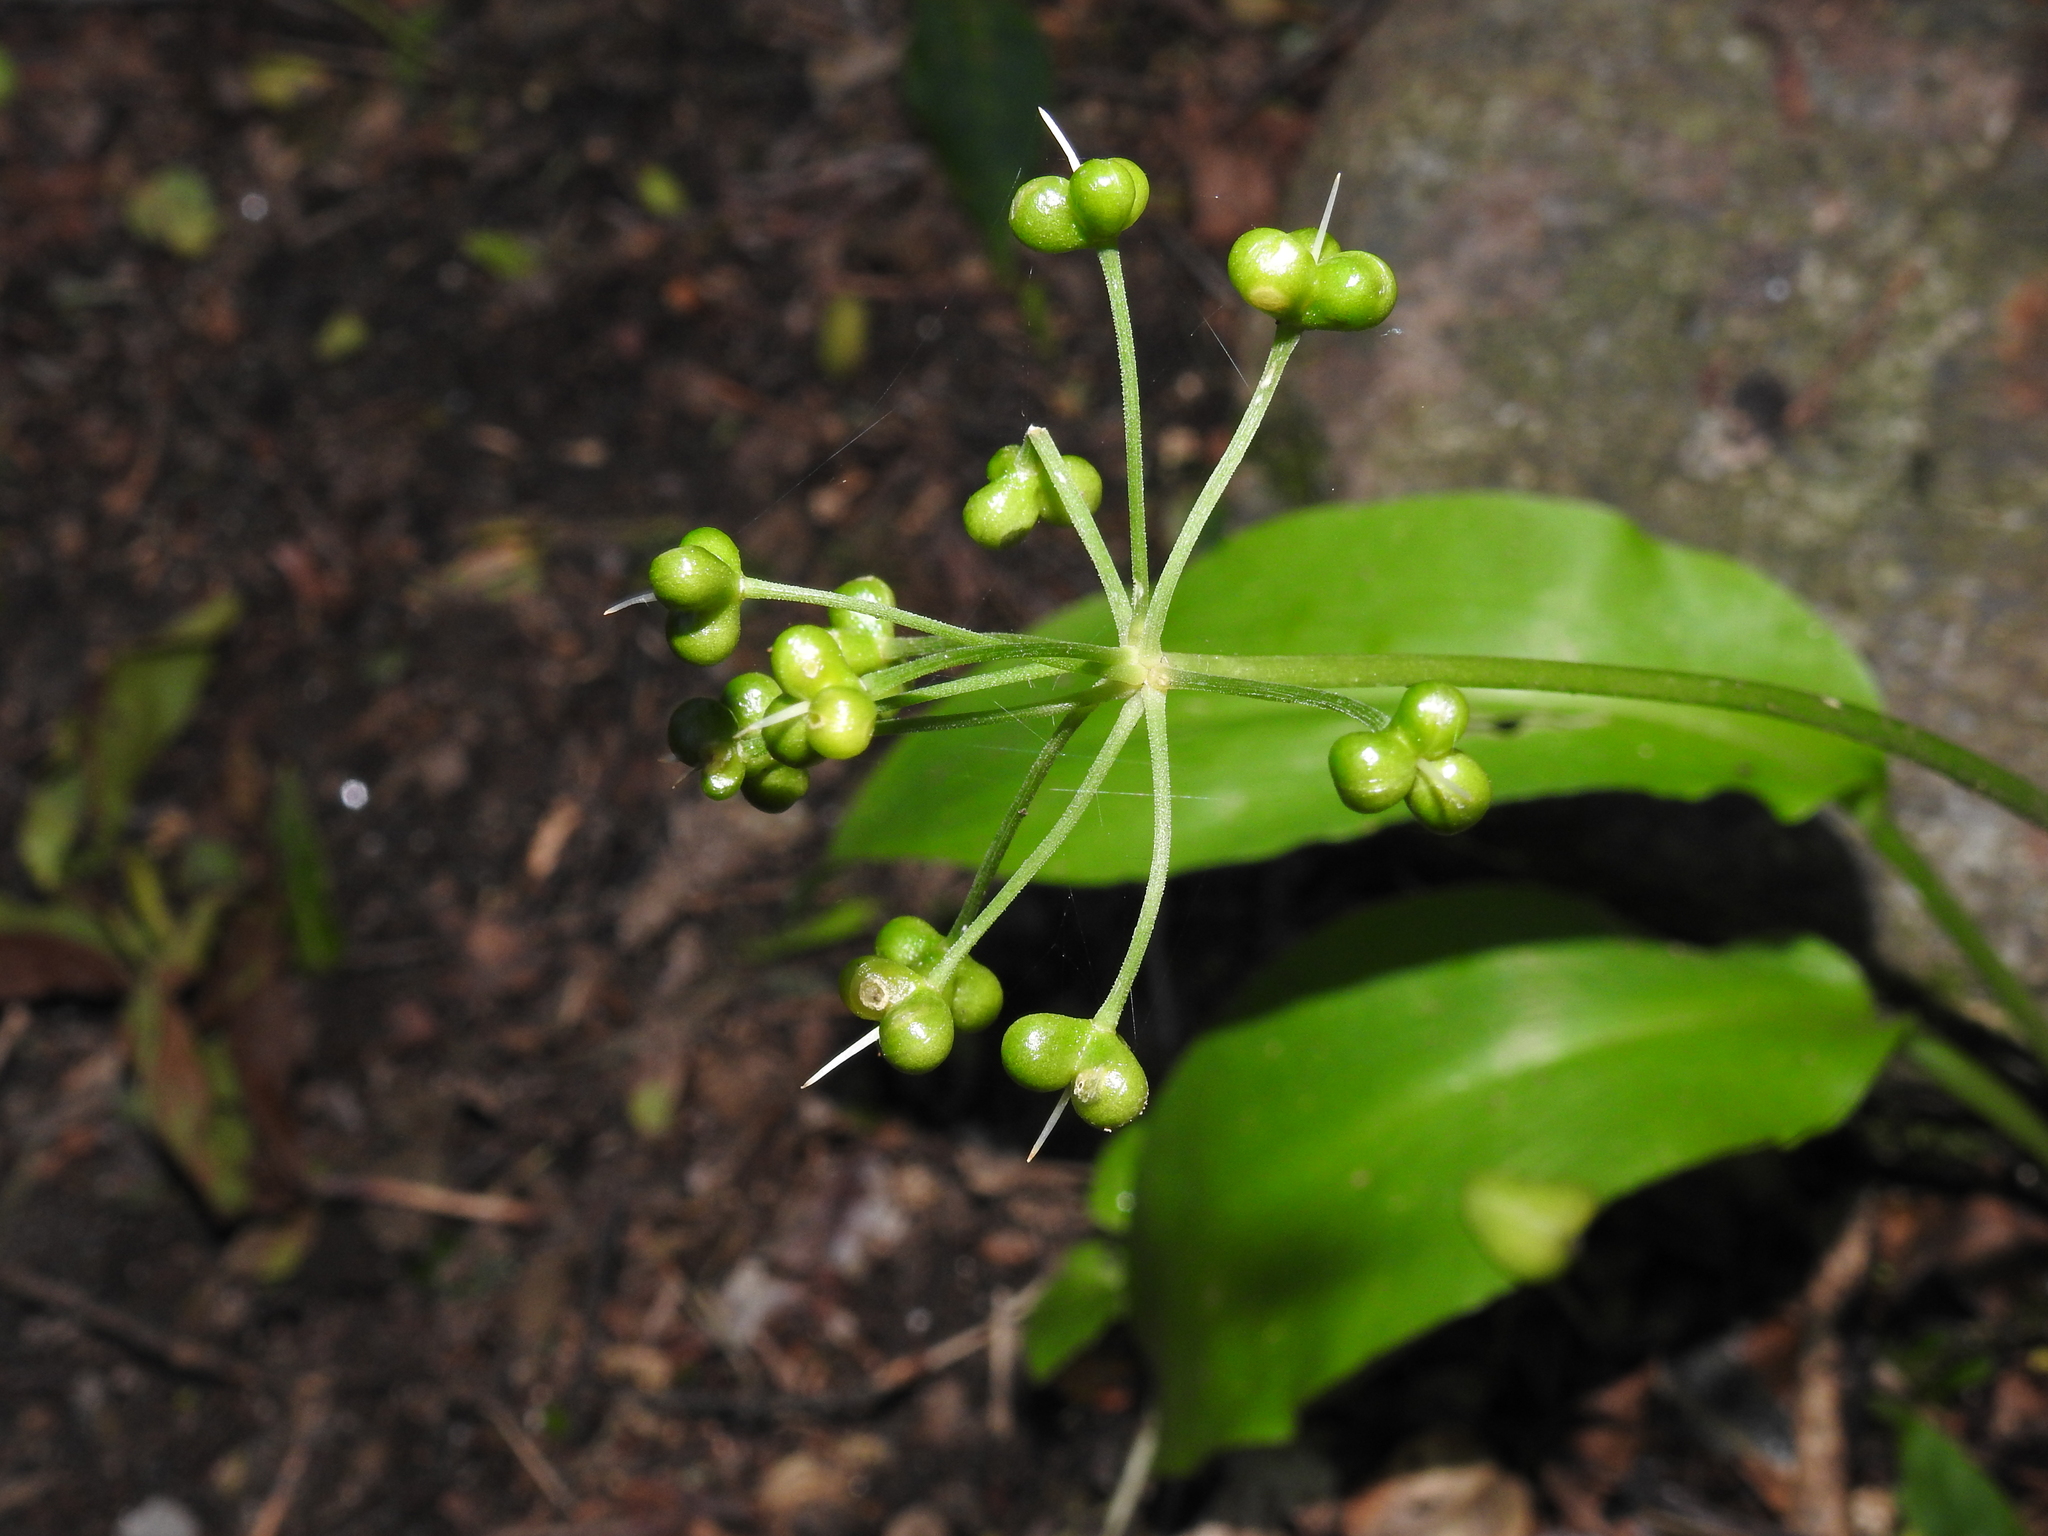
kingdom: Plantae
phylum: Tracheophyta
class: Liliopsida
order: Asparagales
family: Amaryllidaceae
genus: Allium
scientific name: Allium ursinum
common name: Ramsons
